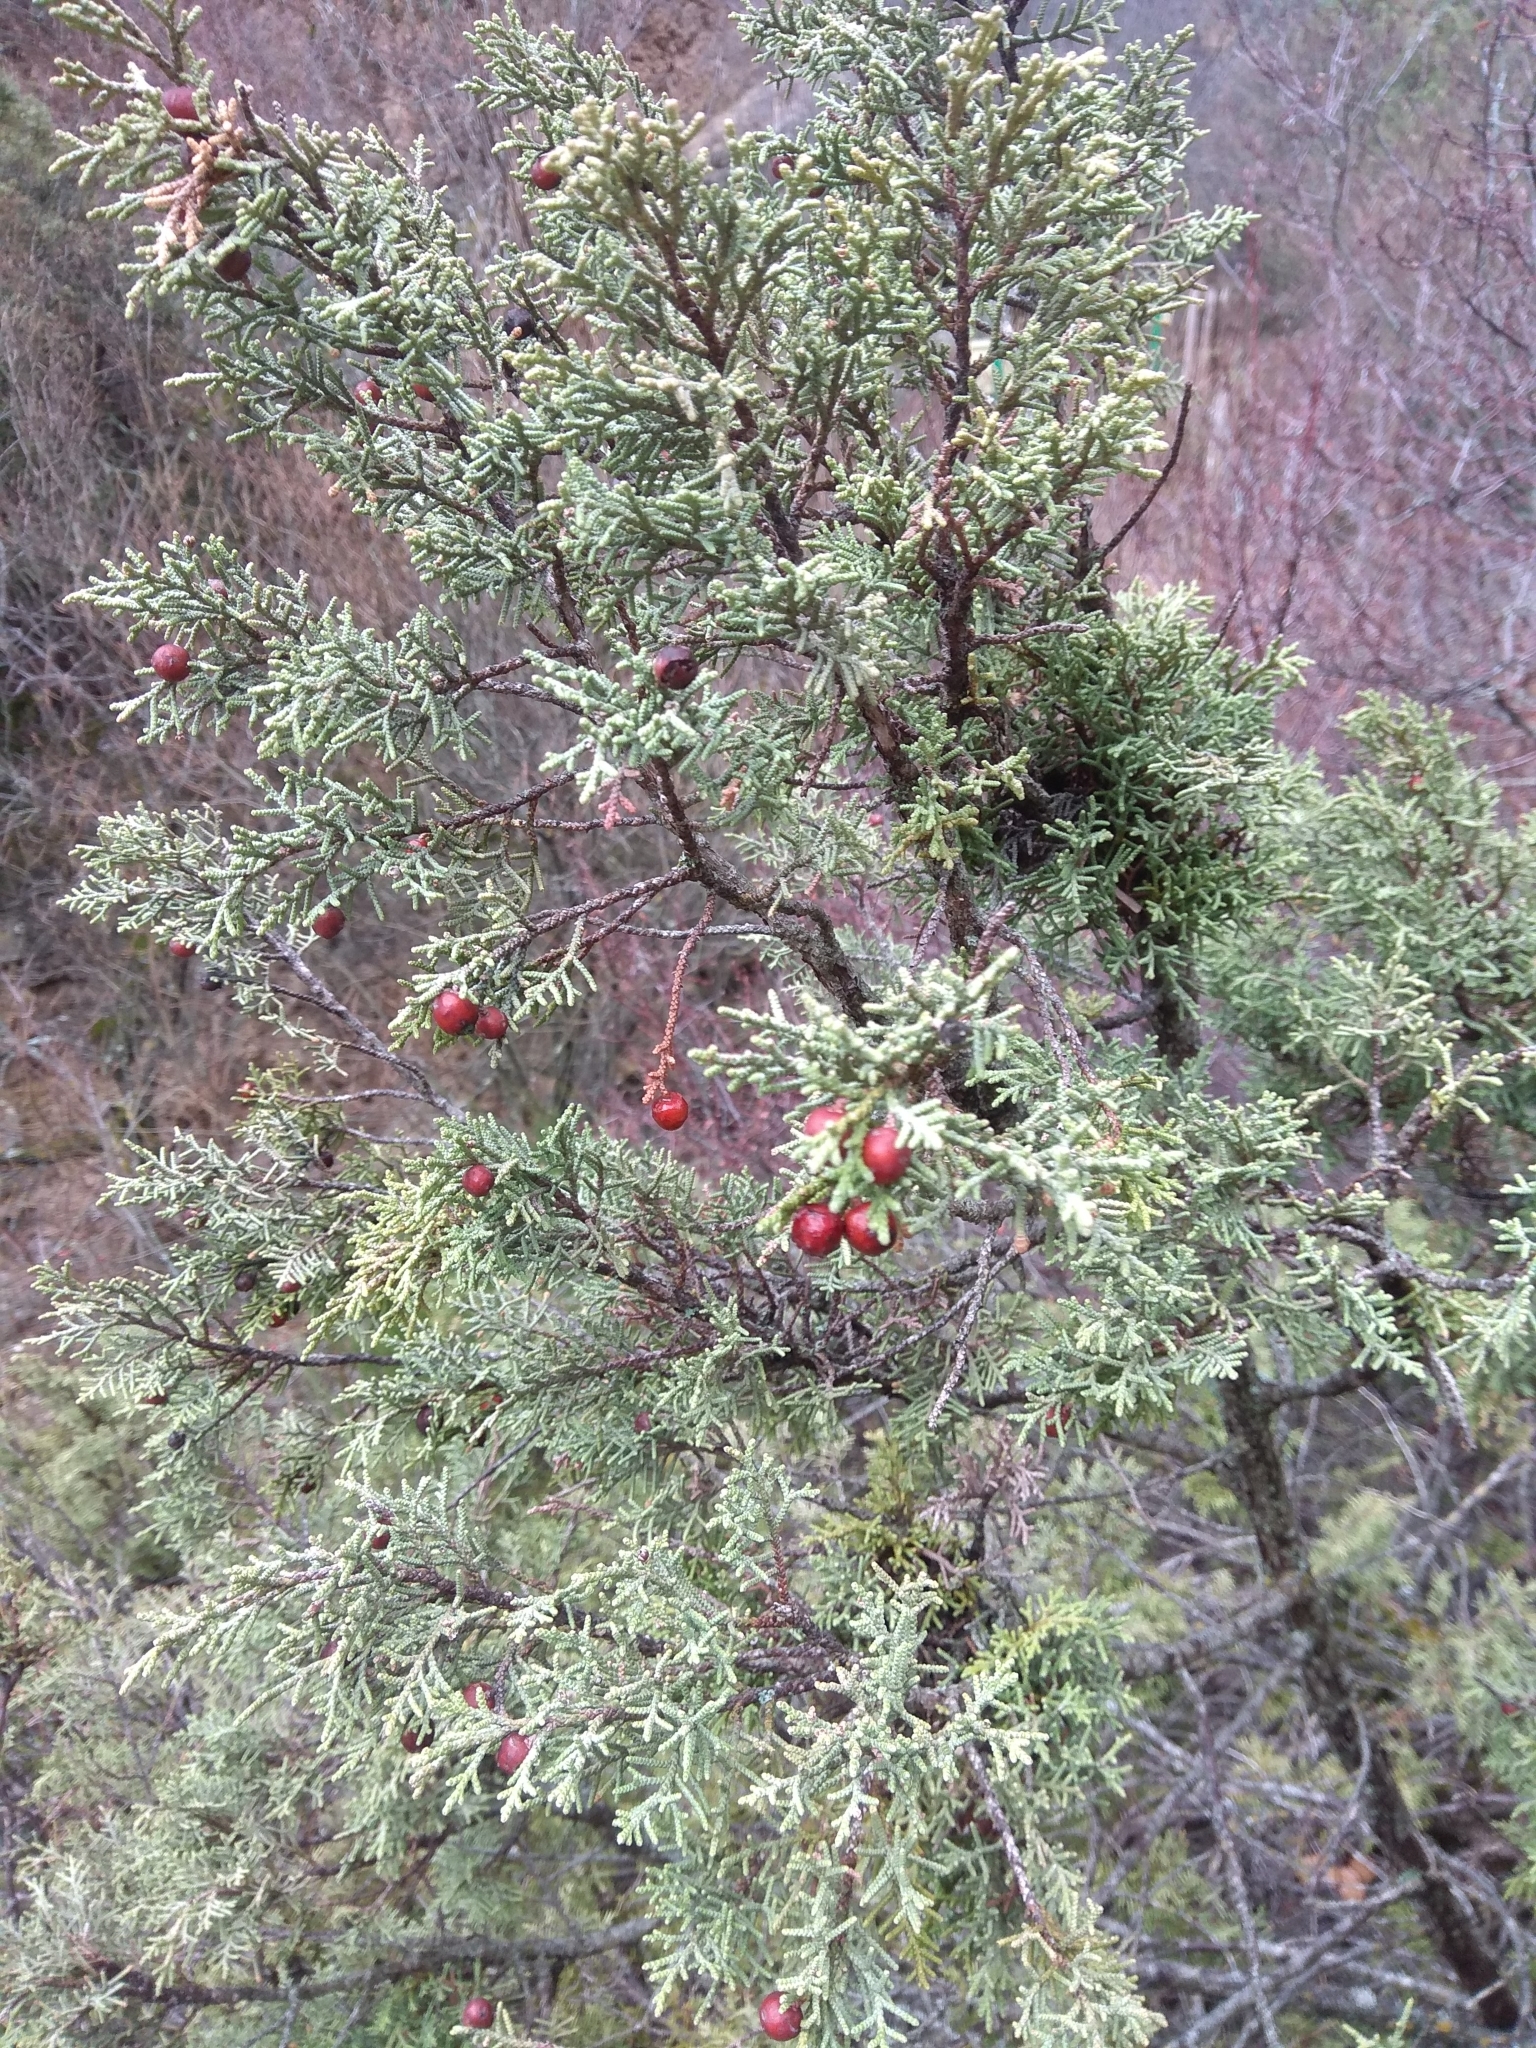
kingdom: Plantae
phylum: Tracheophyta
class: Pinopsida
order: Pinales
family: Cupressaceae
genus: Juniperus
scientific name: Juniperus phoenicea
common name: Phoenician juniper
